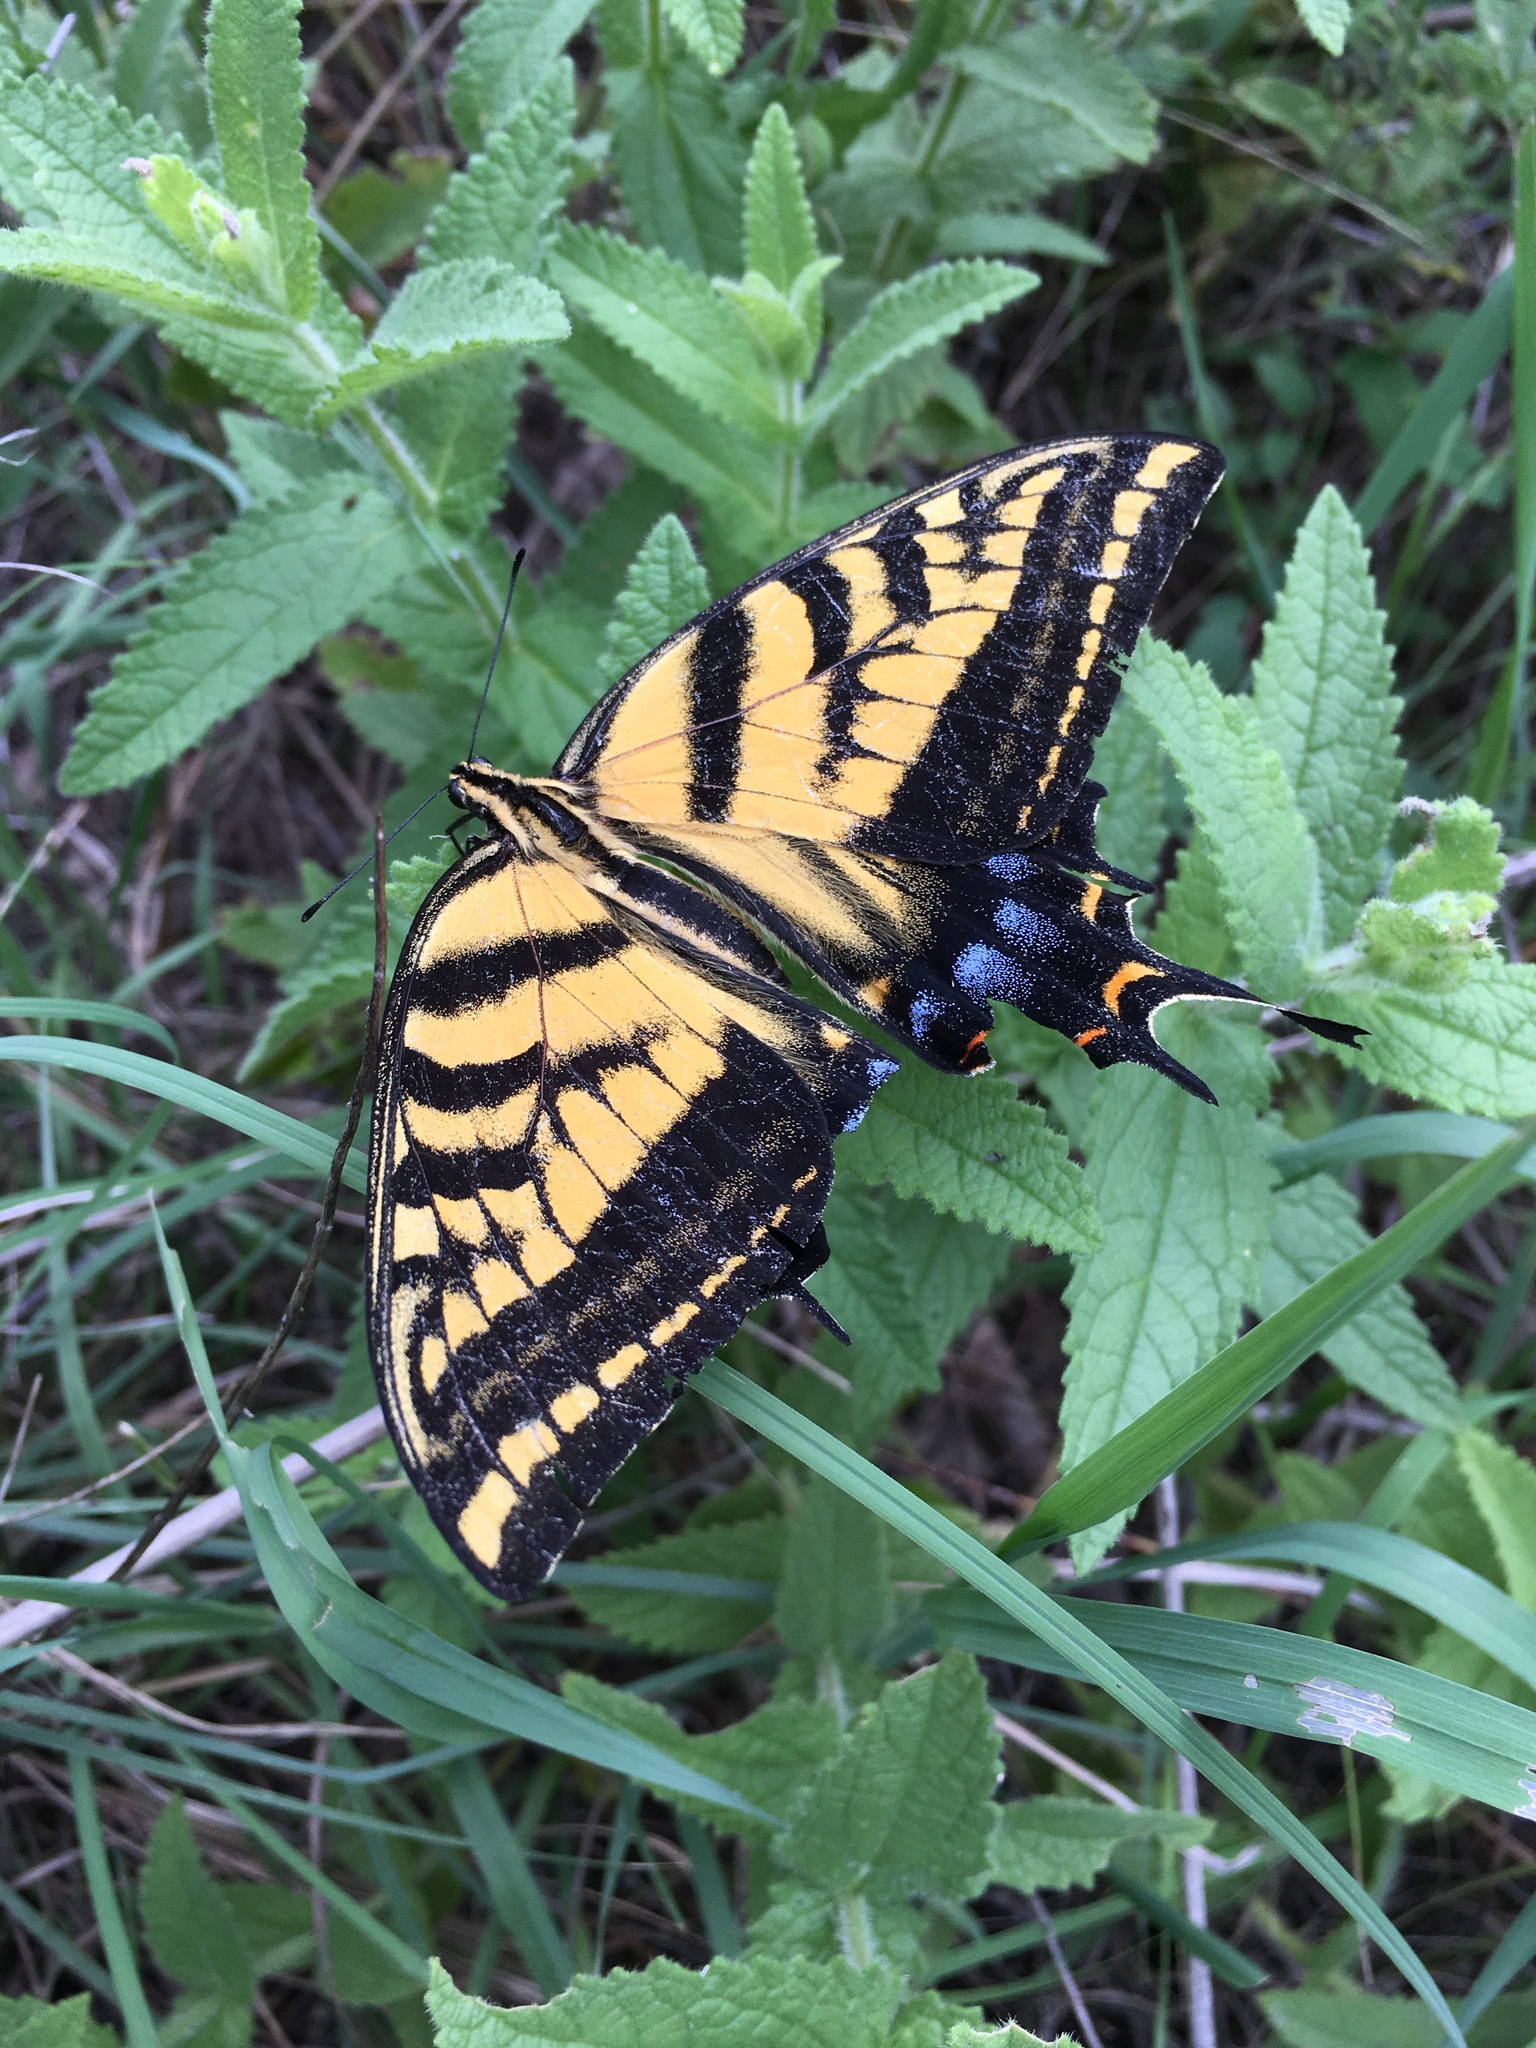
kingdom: Animalia
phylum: Arthropoda
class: Insecta
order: Lepidoptera
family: Papilionidae
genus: Papilio
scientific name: Papilio multicaudata
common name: Two-tailed tiger swallowtail
